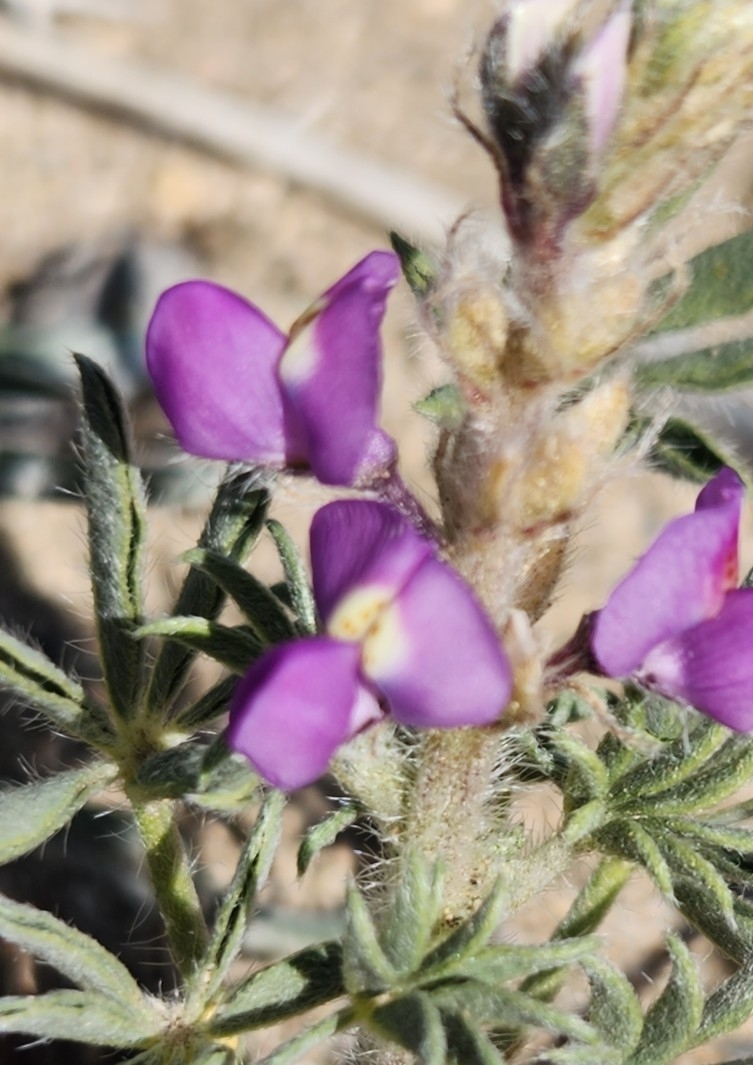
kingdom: Plantae
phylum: Tracheophyta
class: Magnoliopsida
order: Fabales
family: Fabaceae
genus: Lupinus
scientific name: Lupinus arizonicus
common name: Arizona lupine
